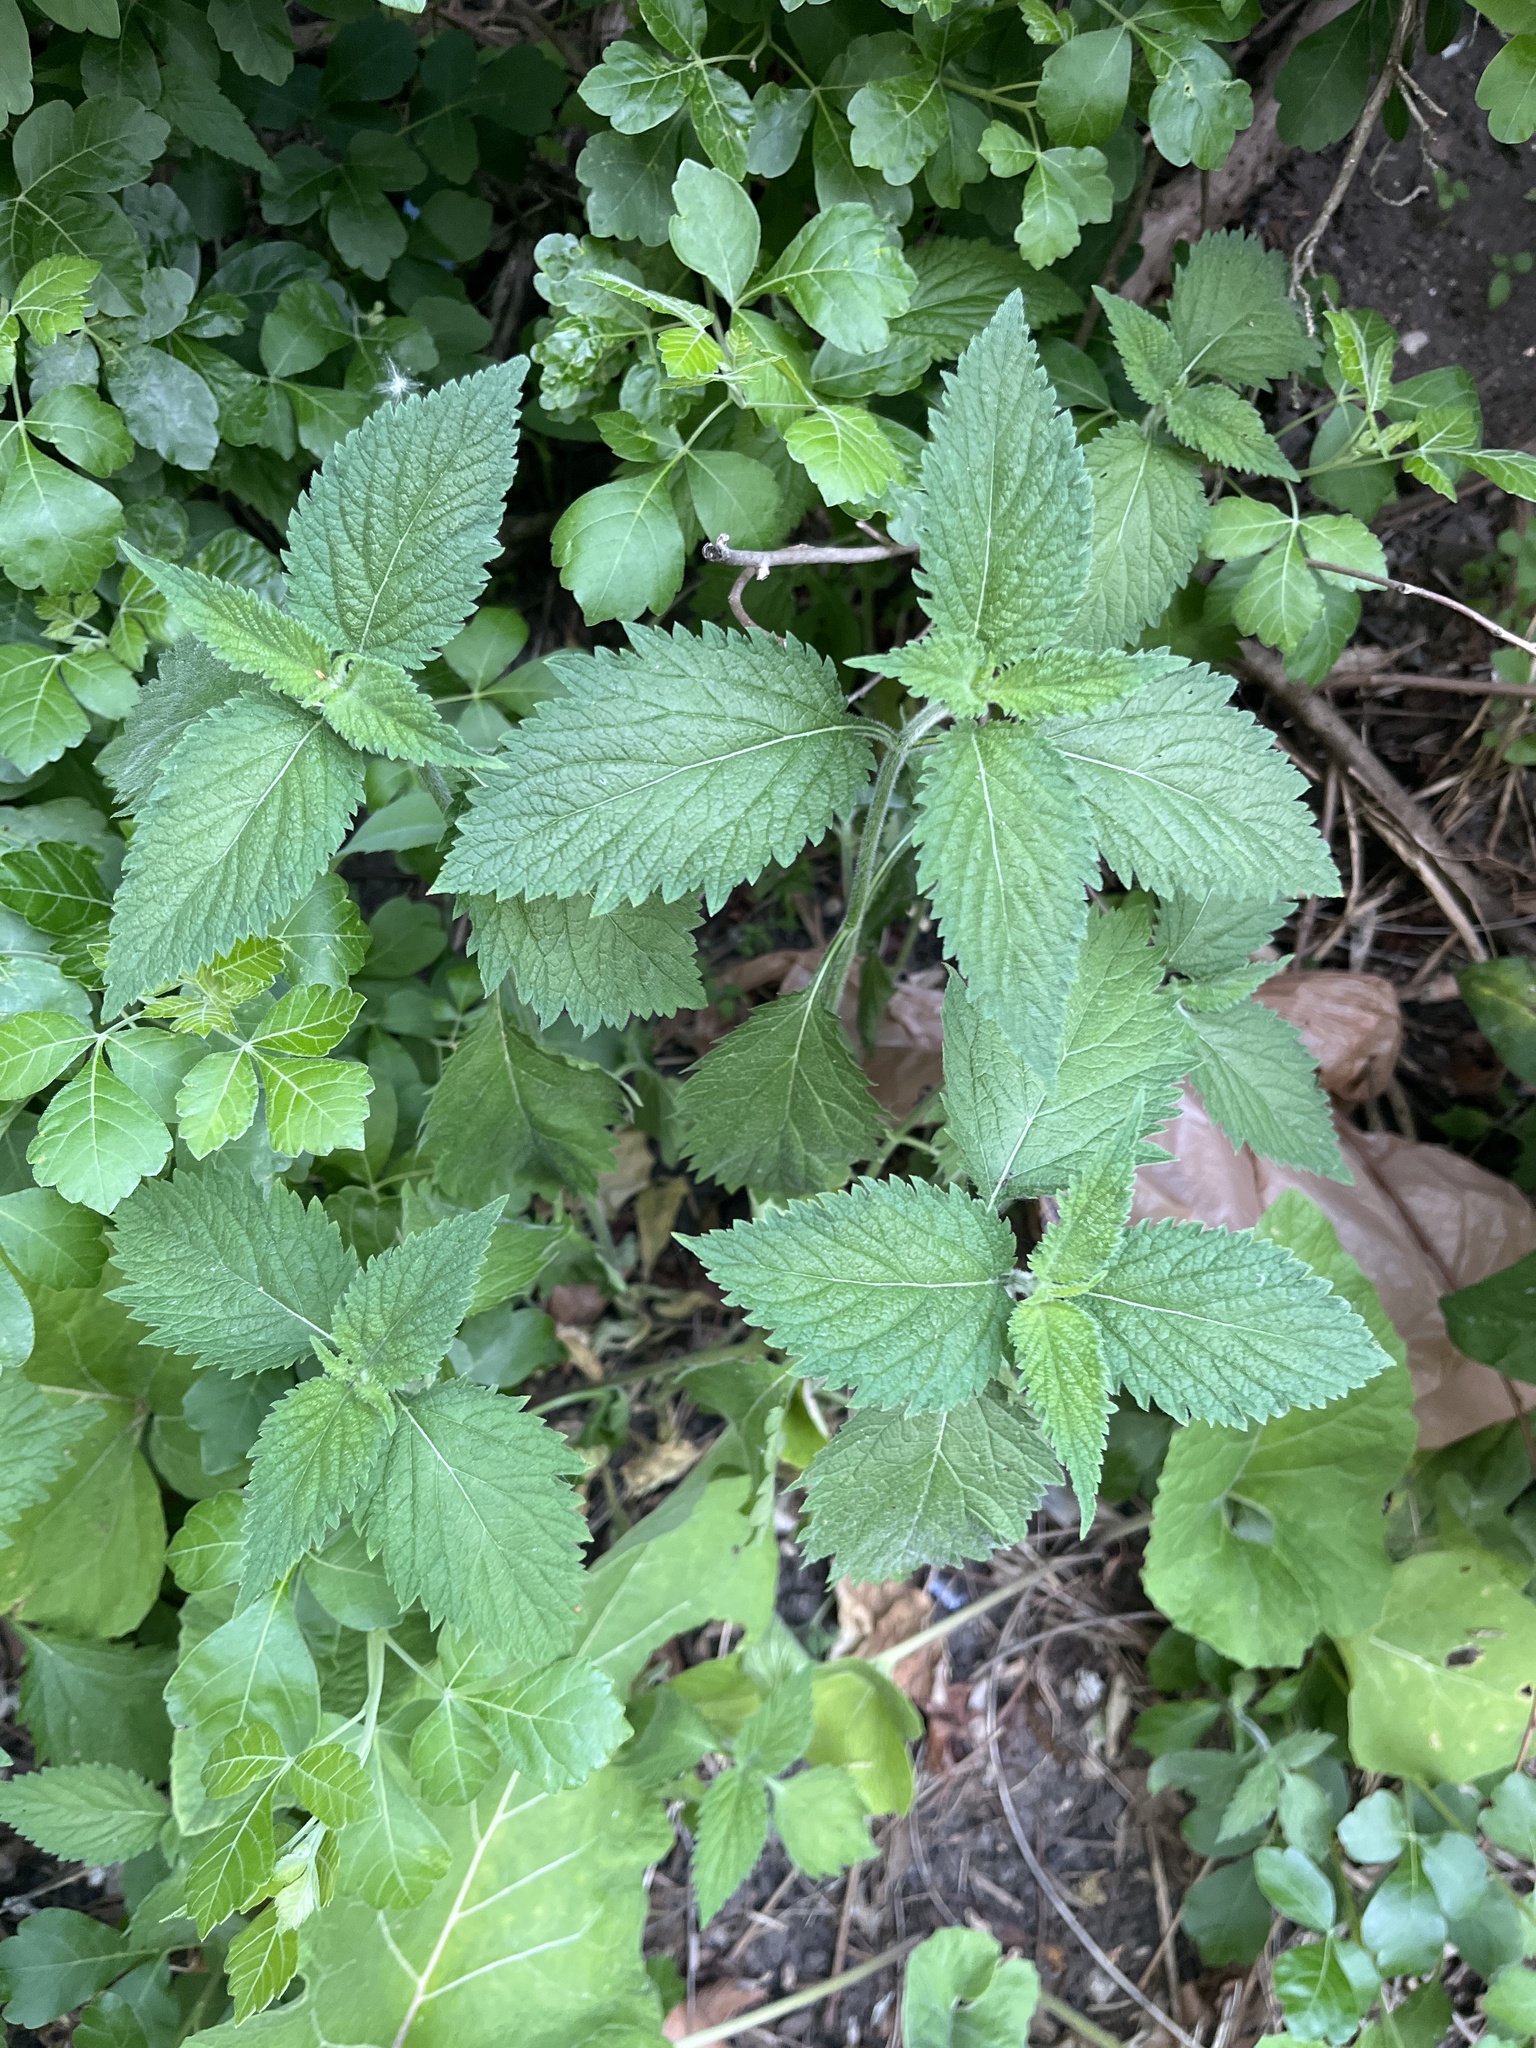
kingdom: Plantae
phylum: Tracheophyta
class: Magnoliopsida
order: Lamiales
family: Verbenaceae
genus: Verbena
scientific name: Verbena urticifolia
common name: Nettle-leaved vervain
